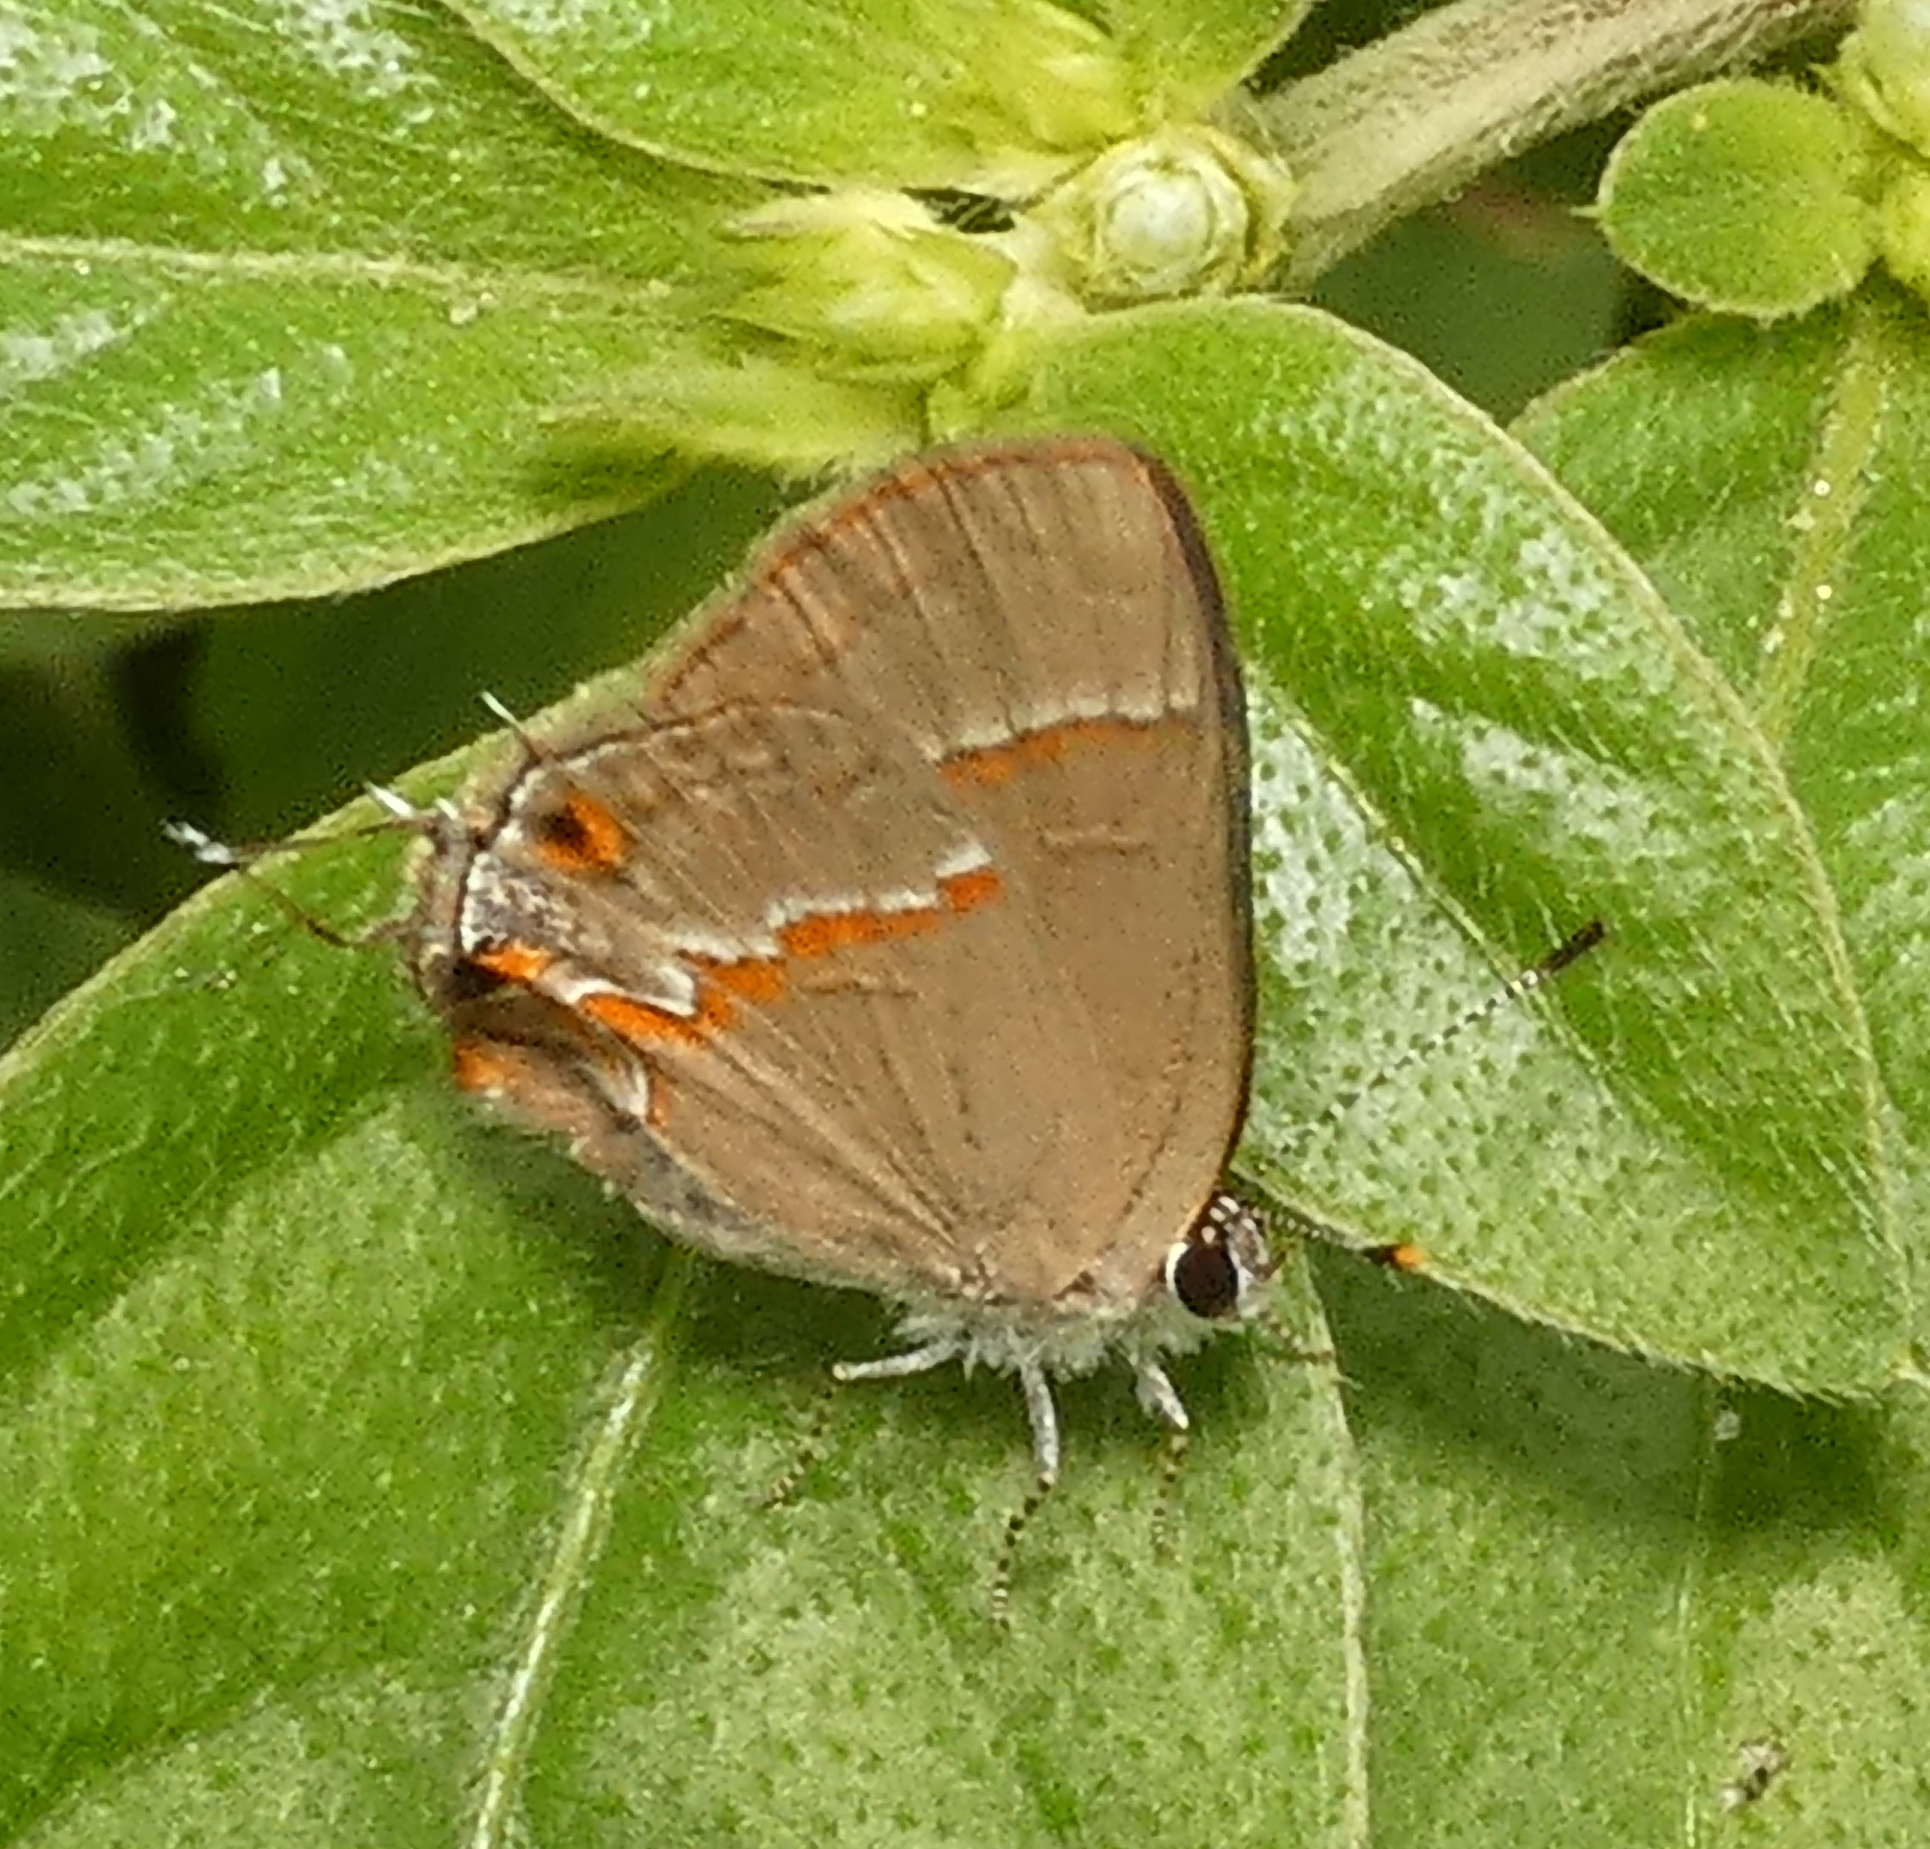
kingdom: Animalia
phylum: Arthropoda
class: Insecta
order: Lepidoptera
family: Lycaenidae
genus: Electrostrymon
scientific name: Electrostrymon endymion
